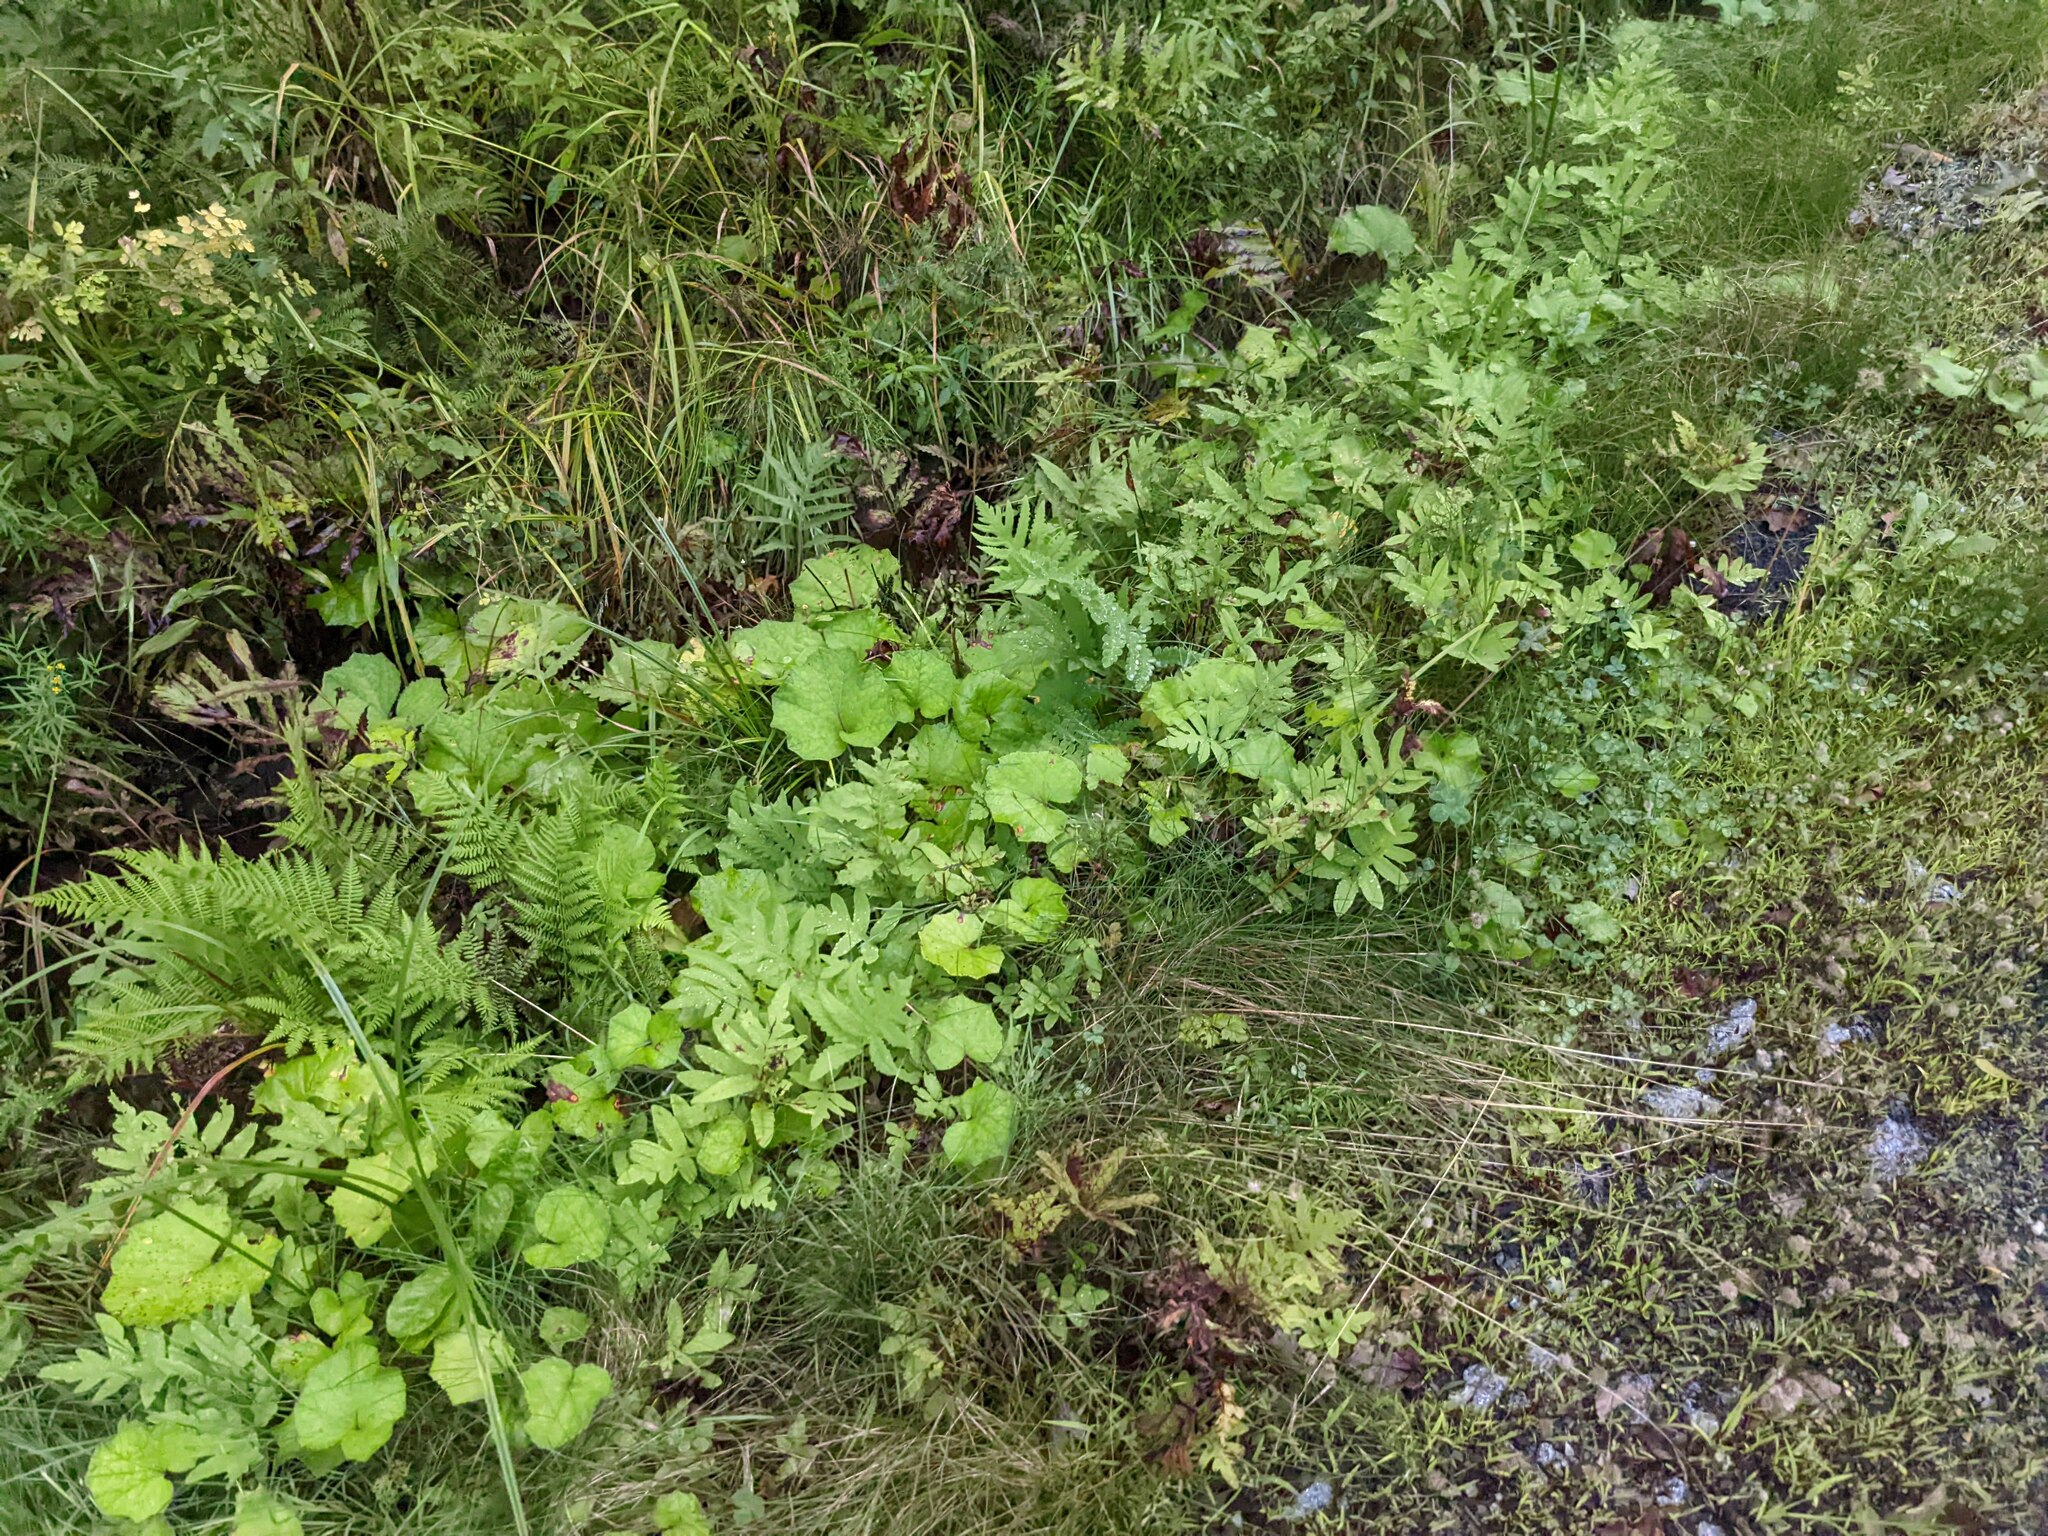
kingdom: Plantae
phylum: Tracheophyta
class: Magnoliopsida
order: Asterales
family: Asteraceae
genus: Tussilago
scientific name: Tussilago farfara
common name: Coltsfoot
